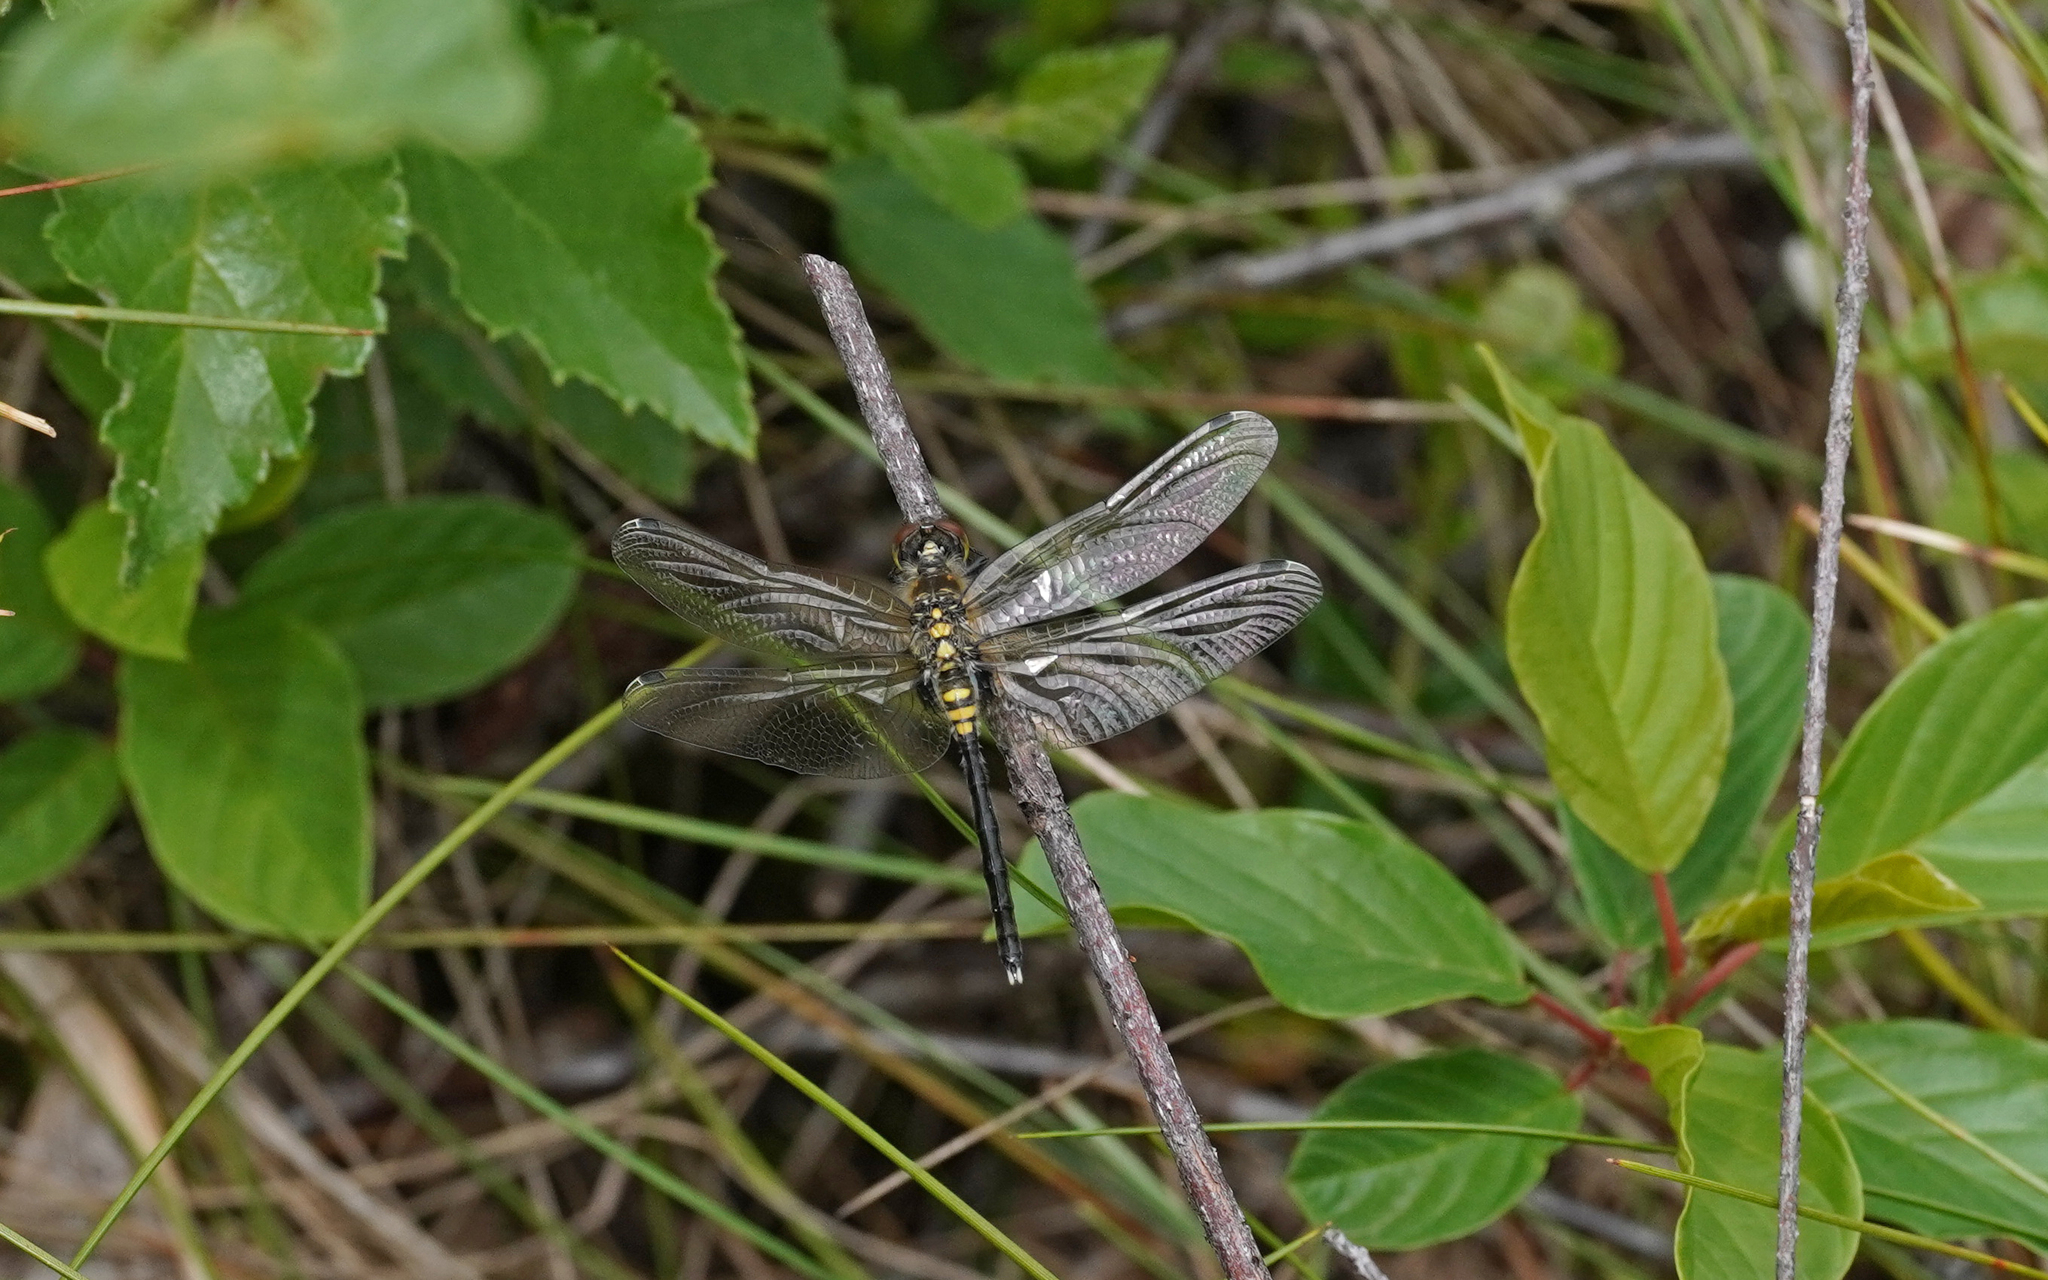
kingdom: Animalia
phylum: Arthropoda
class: Insecta
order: Odonata
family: Libellulidae
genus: Leucorrhinia
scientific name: Leucorrhinia albifrons
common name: Dark whiteface
